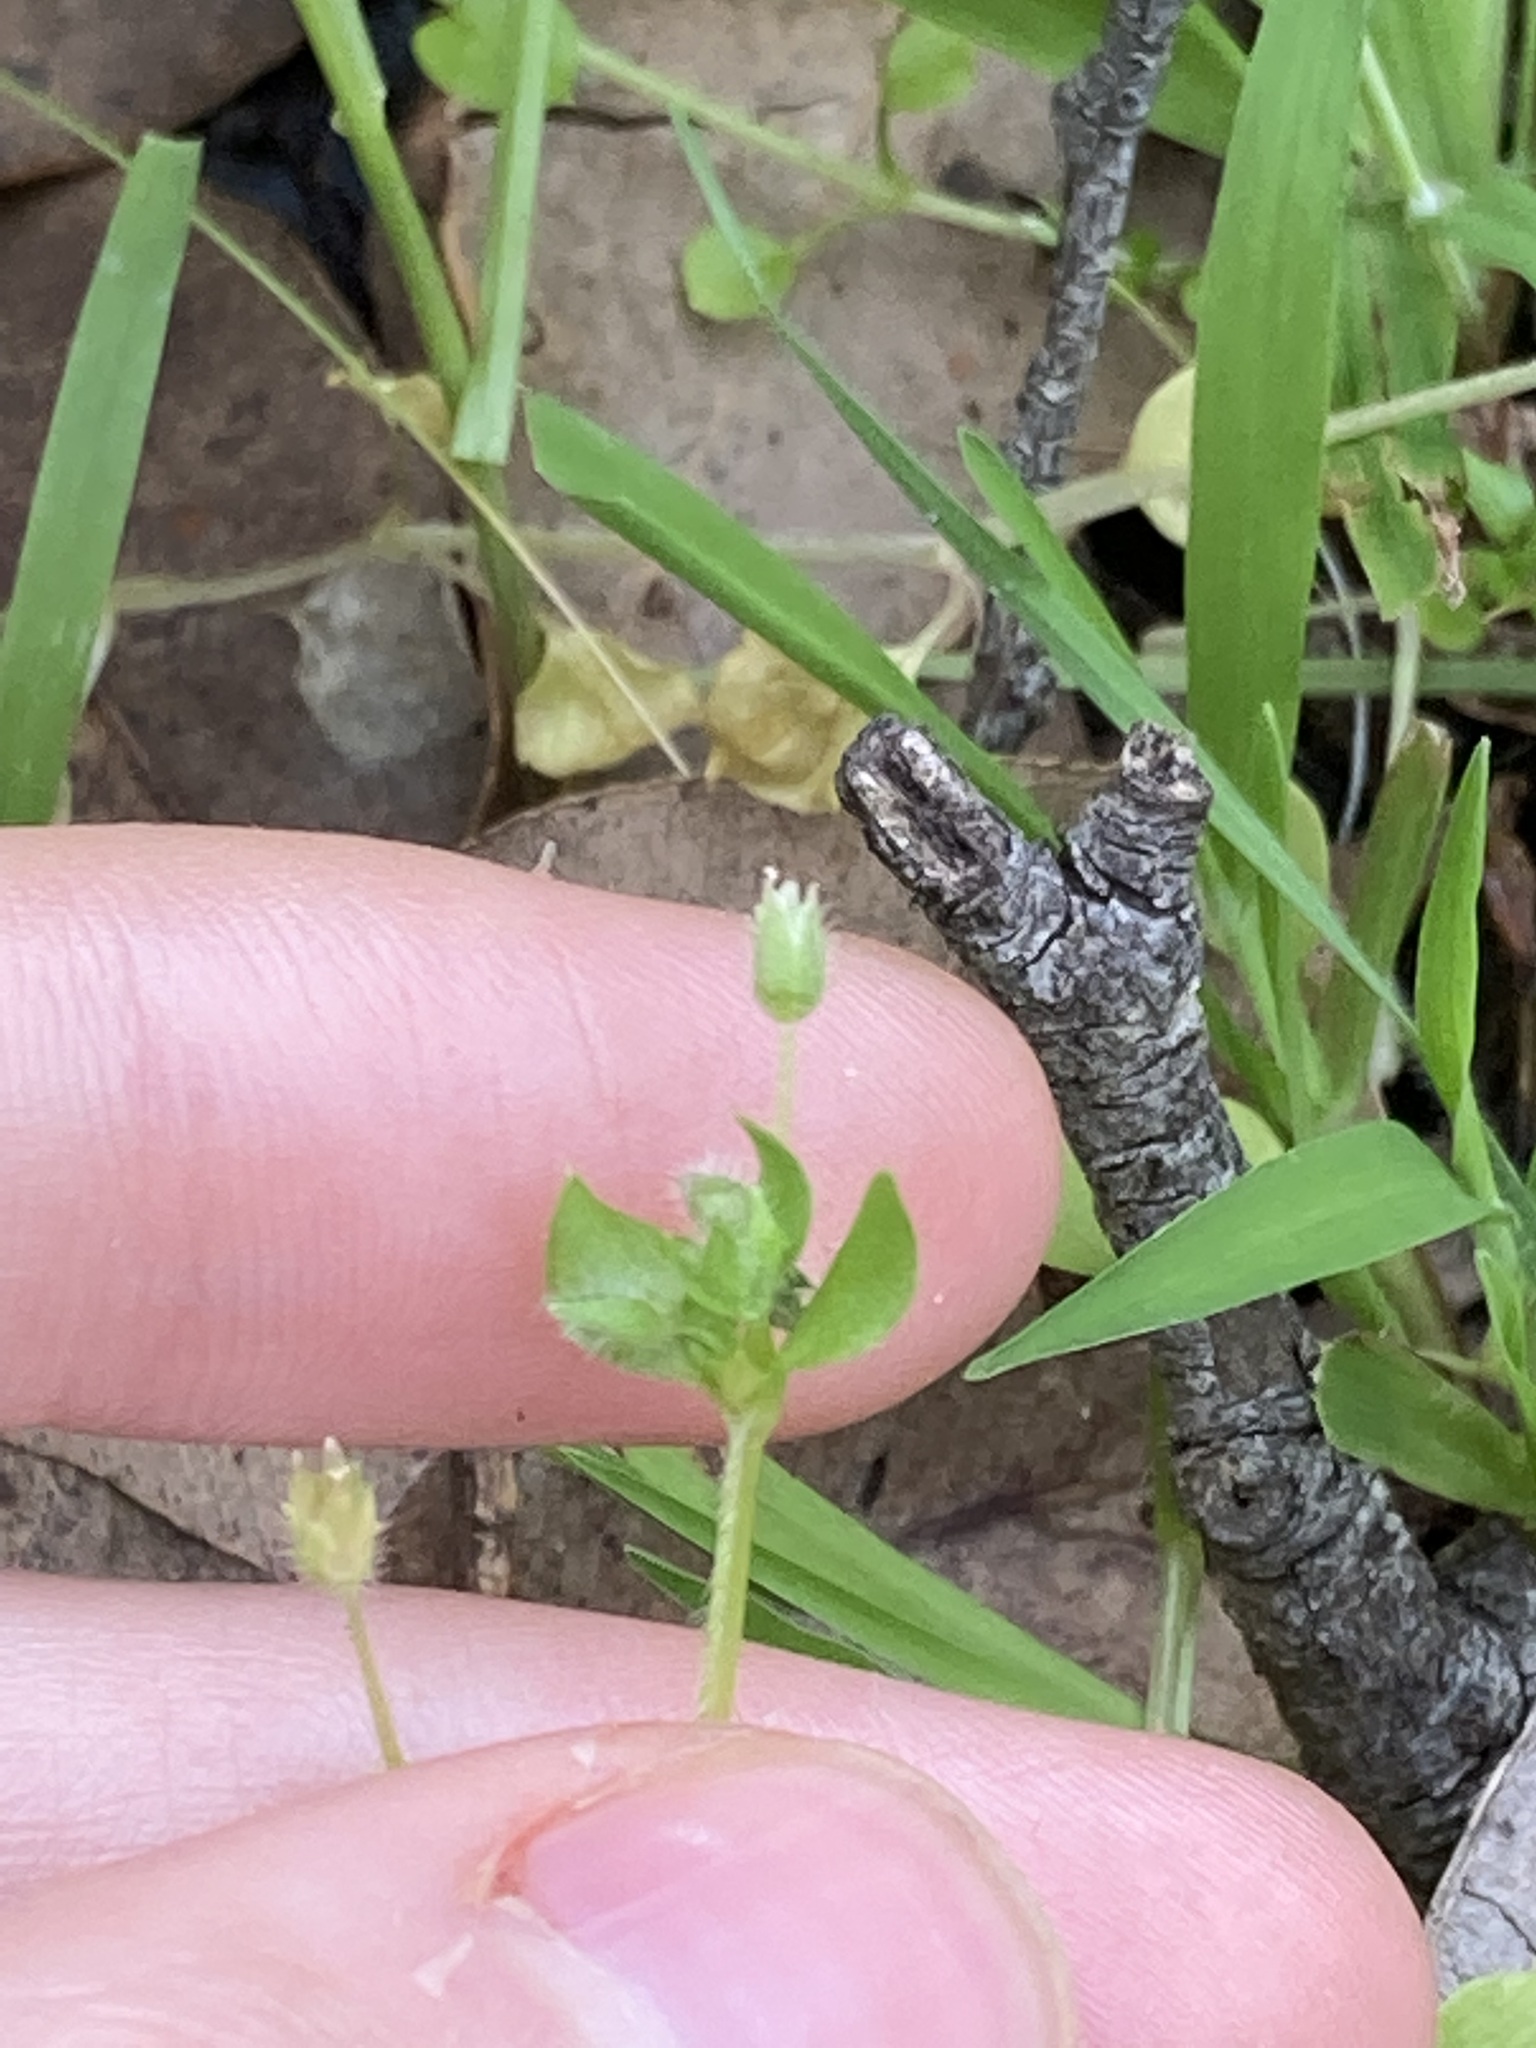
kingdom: Plantae
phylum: Tracheophyta
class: Magnoliopsida
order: Caryophyllales
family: Caryophyllaceae
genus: Stellaria
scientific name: Stellaria media
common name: Common chickweed
